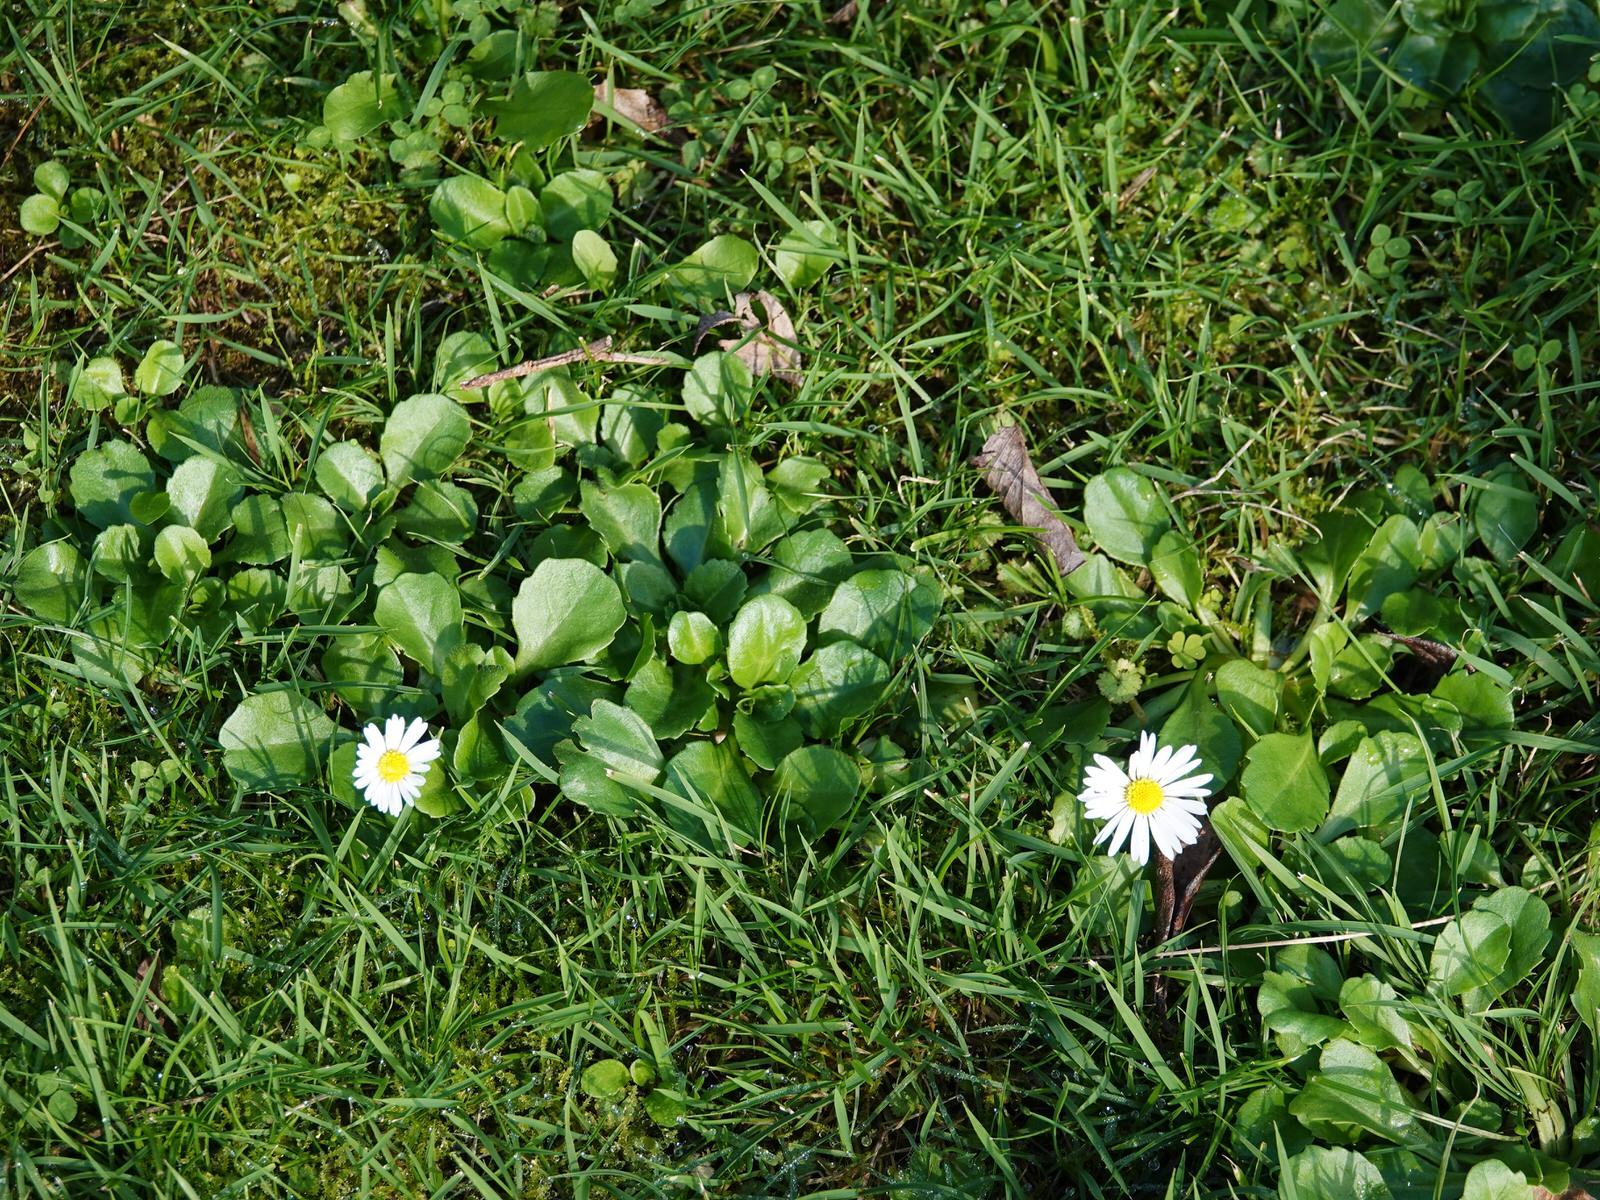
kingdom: Plantae
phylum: Tracheophyta
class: Magnoliopsida
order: Asterales
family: Asteraceae
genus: Bellis
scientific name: Bellis perennis
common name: Lawndaisy
